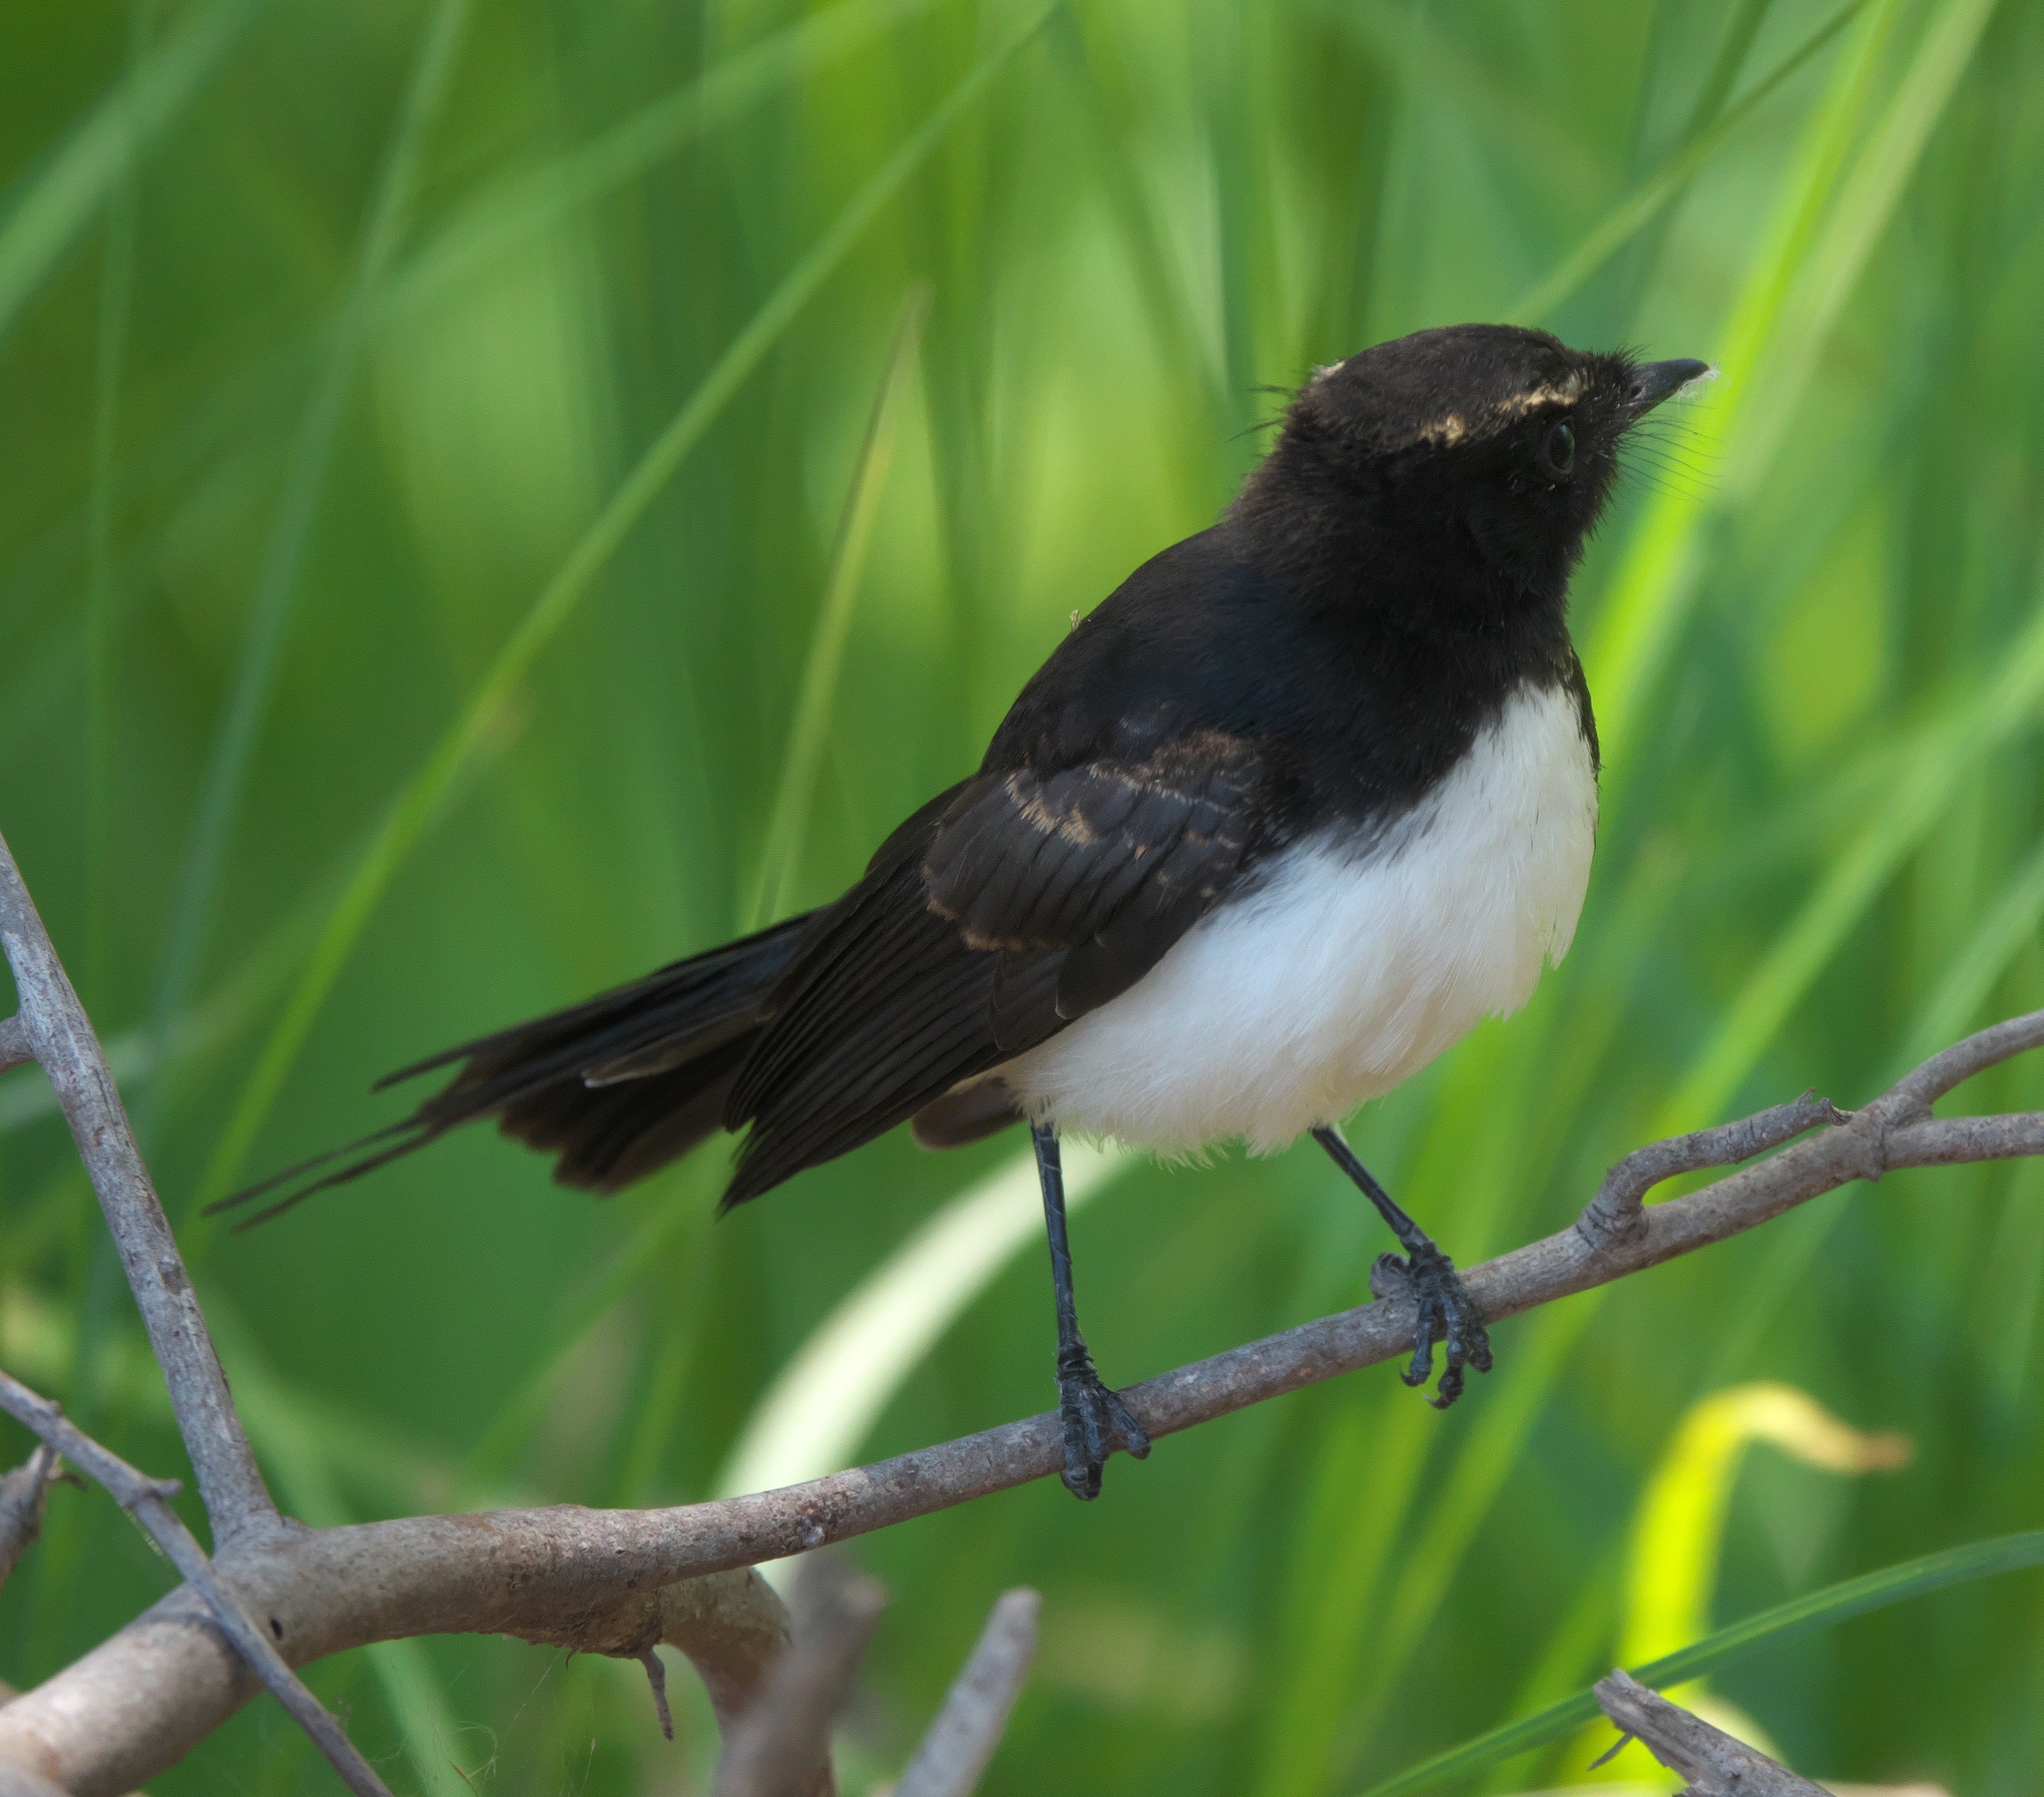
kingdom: Animalia
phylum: Chordata
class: Aves
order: Passeriformes
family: Rhipiduridae
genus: Rhipidura
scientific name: Rhipidura leucophrys
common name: Willie wagtail
